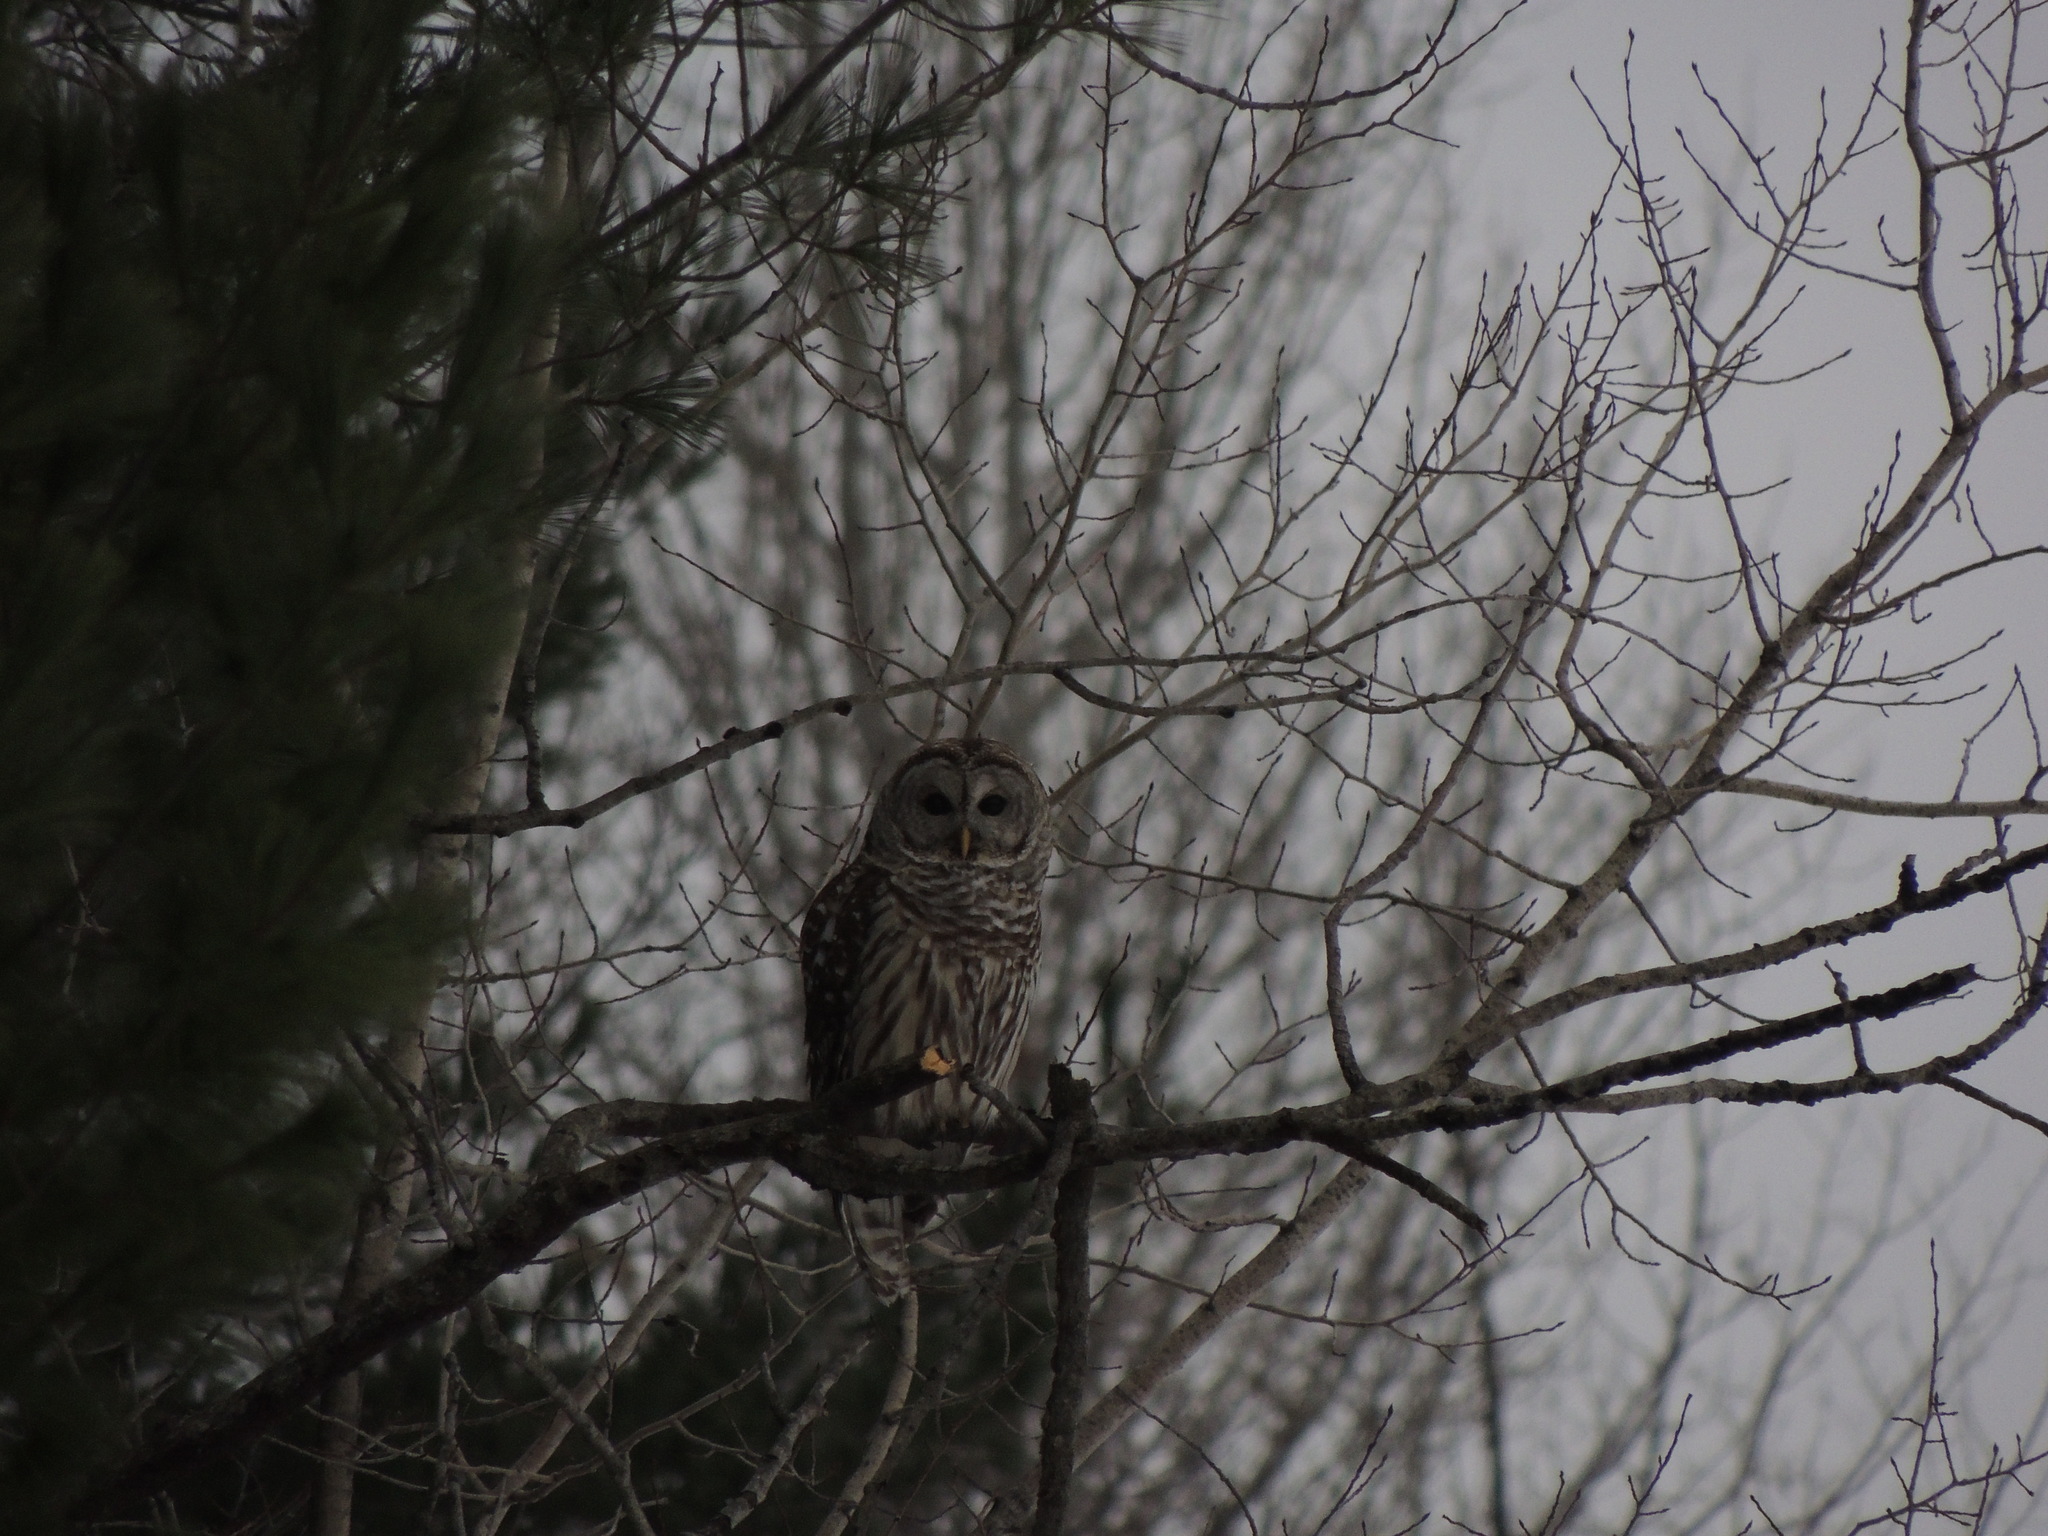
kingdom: Animalia
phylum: Chordata
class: Aves
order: Strigiformes
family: Strigidae
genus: Strix
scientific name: Strix varia
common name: Barred owl
